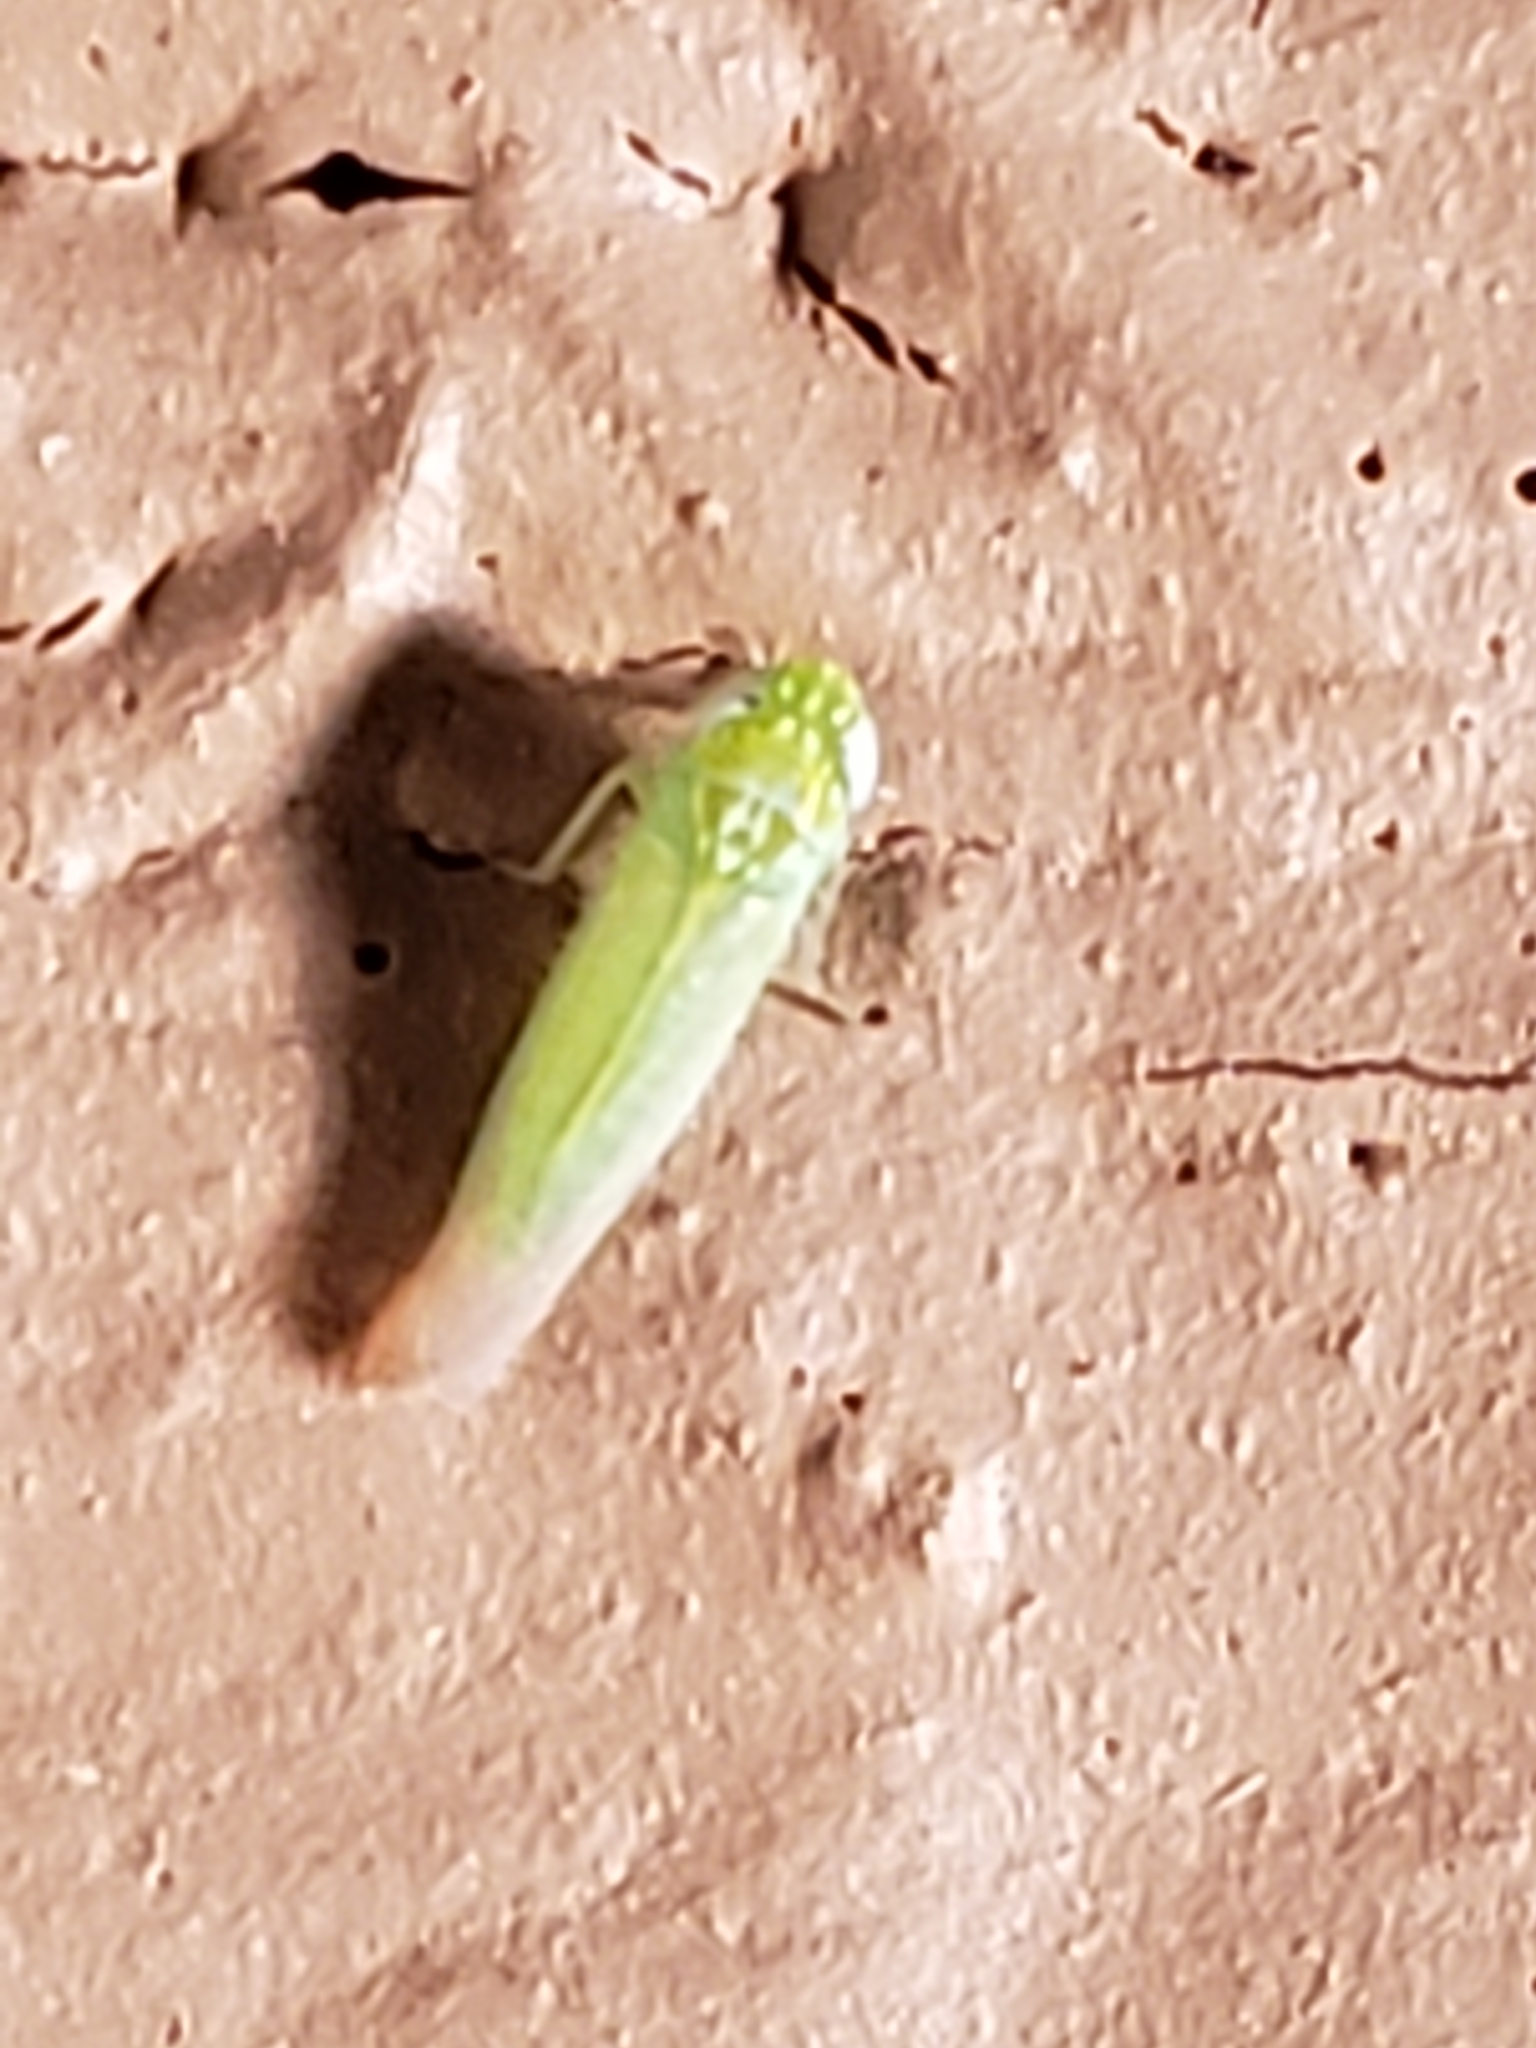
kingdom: Animalia
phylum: Arthropoda
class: Insecta
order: Hemiptera
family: Cicadellidae
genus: Empoasca
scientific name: Empoasca fabae
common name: Potato leafhopper
